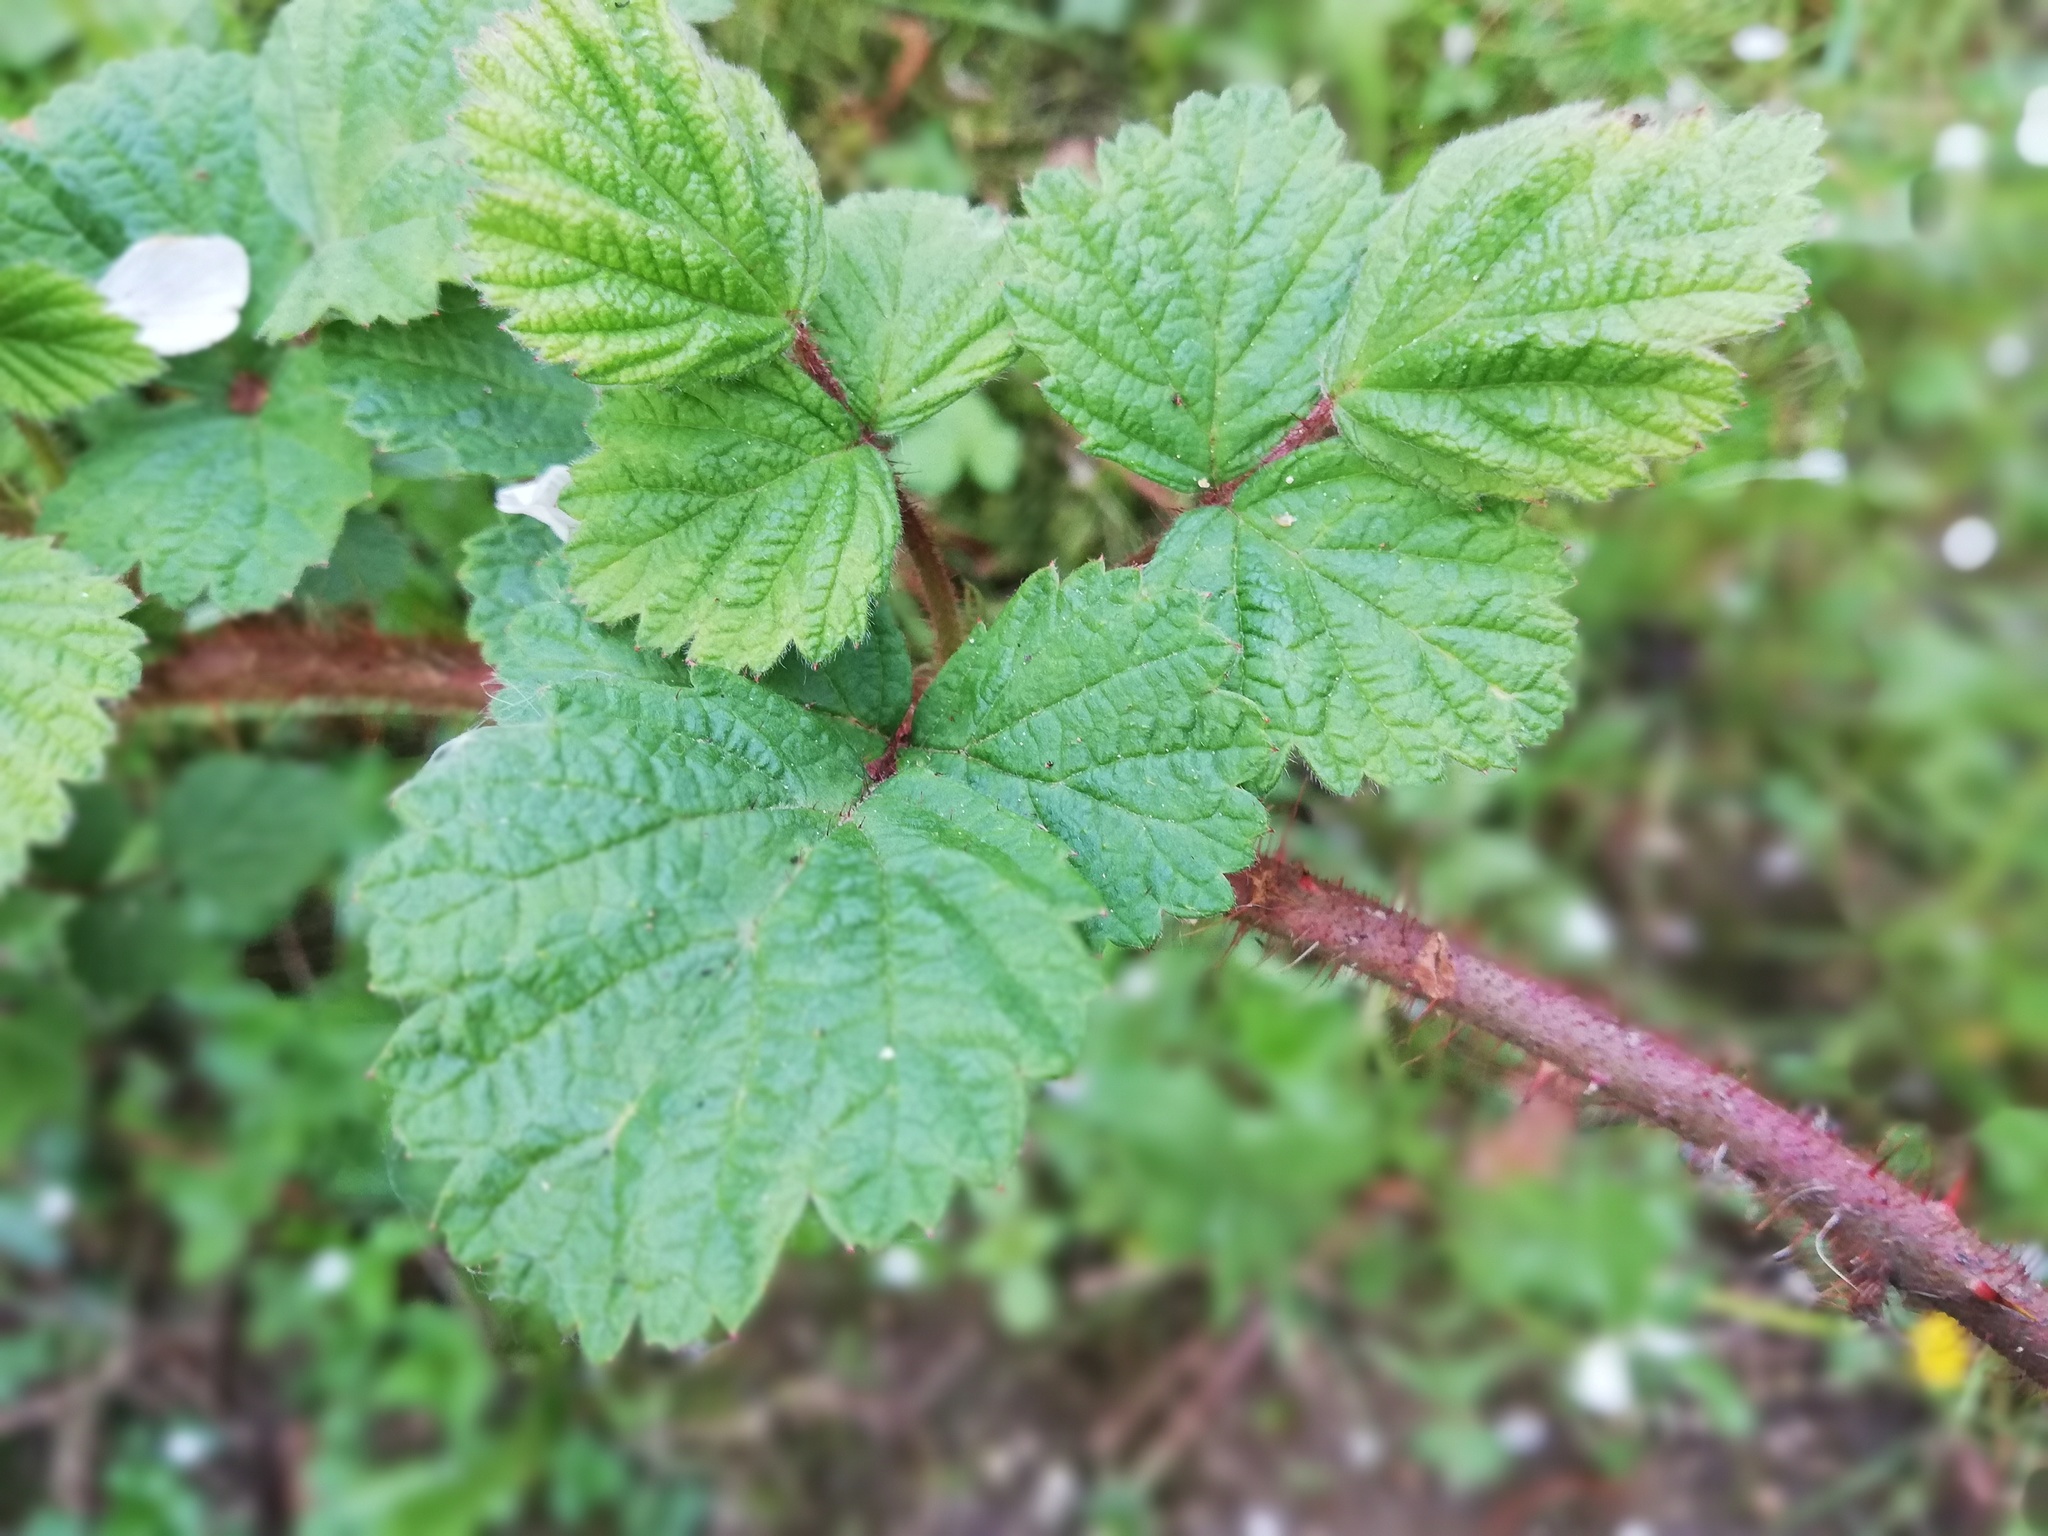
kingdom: Plantae
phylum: Tracheophyta
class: Magnoliopsida
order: Rosales
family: Rosaceae
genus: Rubus
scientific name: Rubus phoenicolasius
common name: Japanese wineberry
